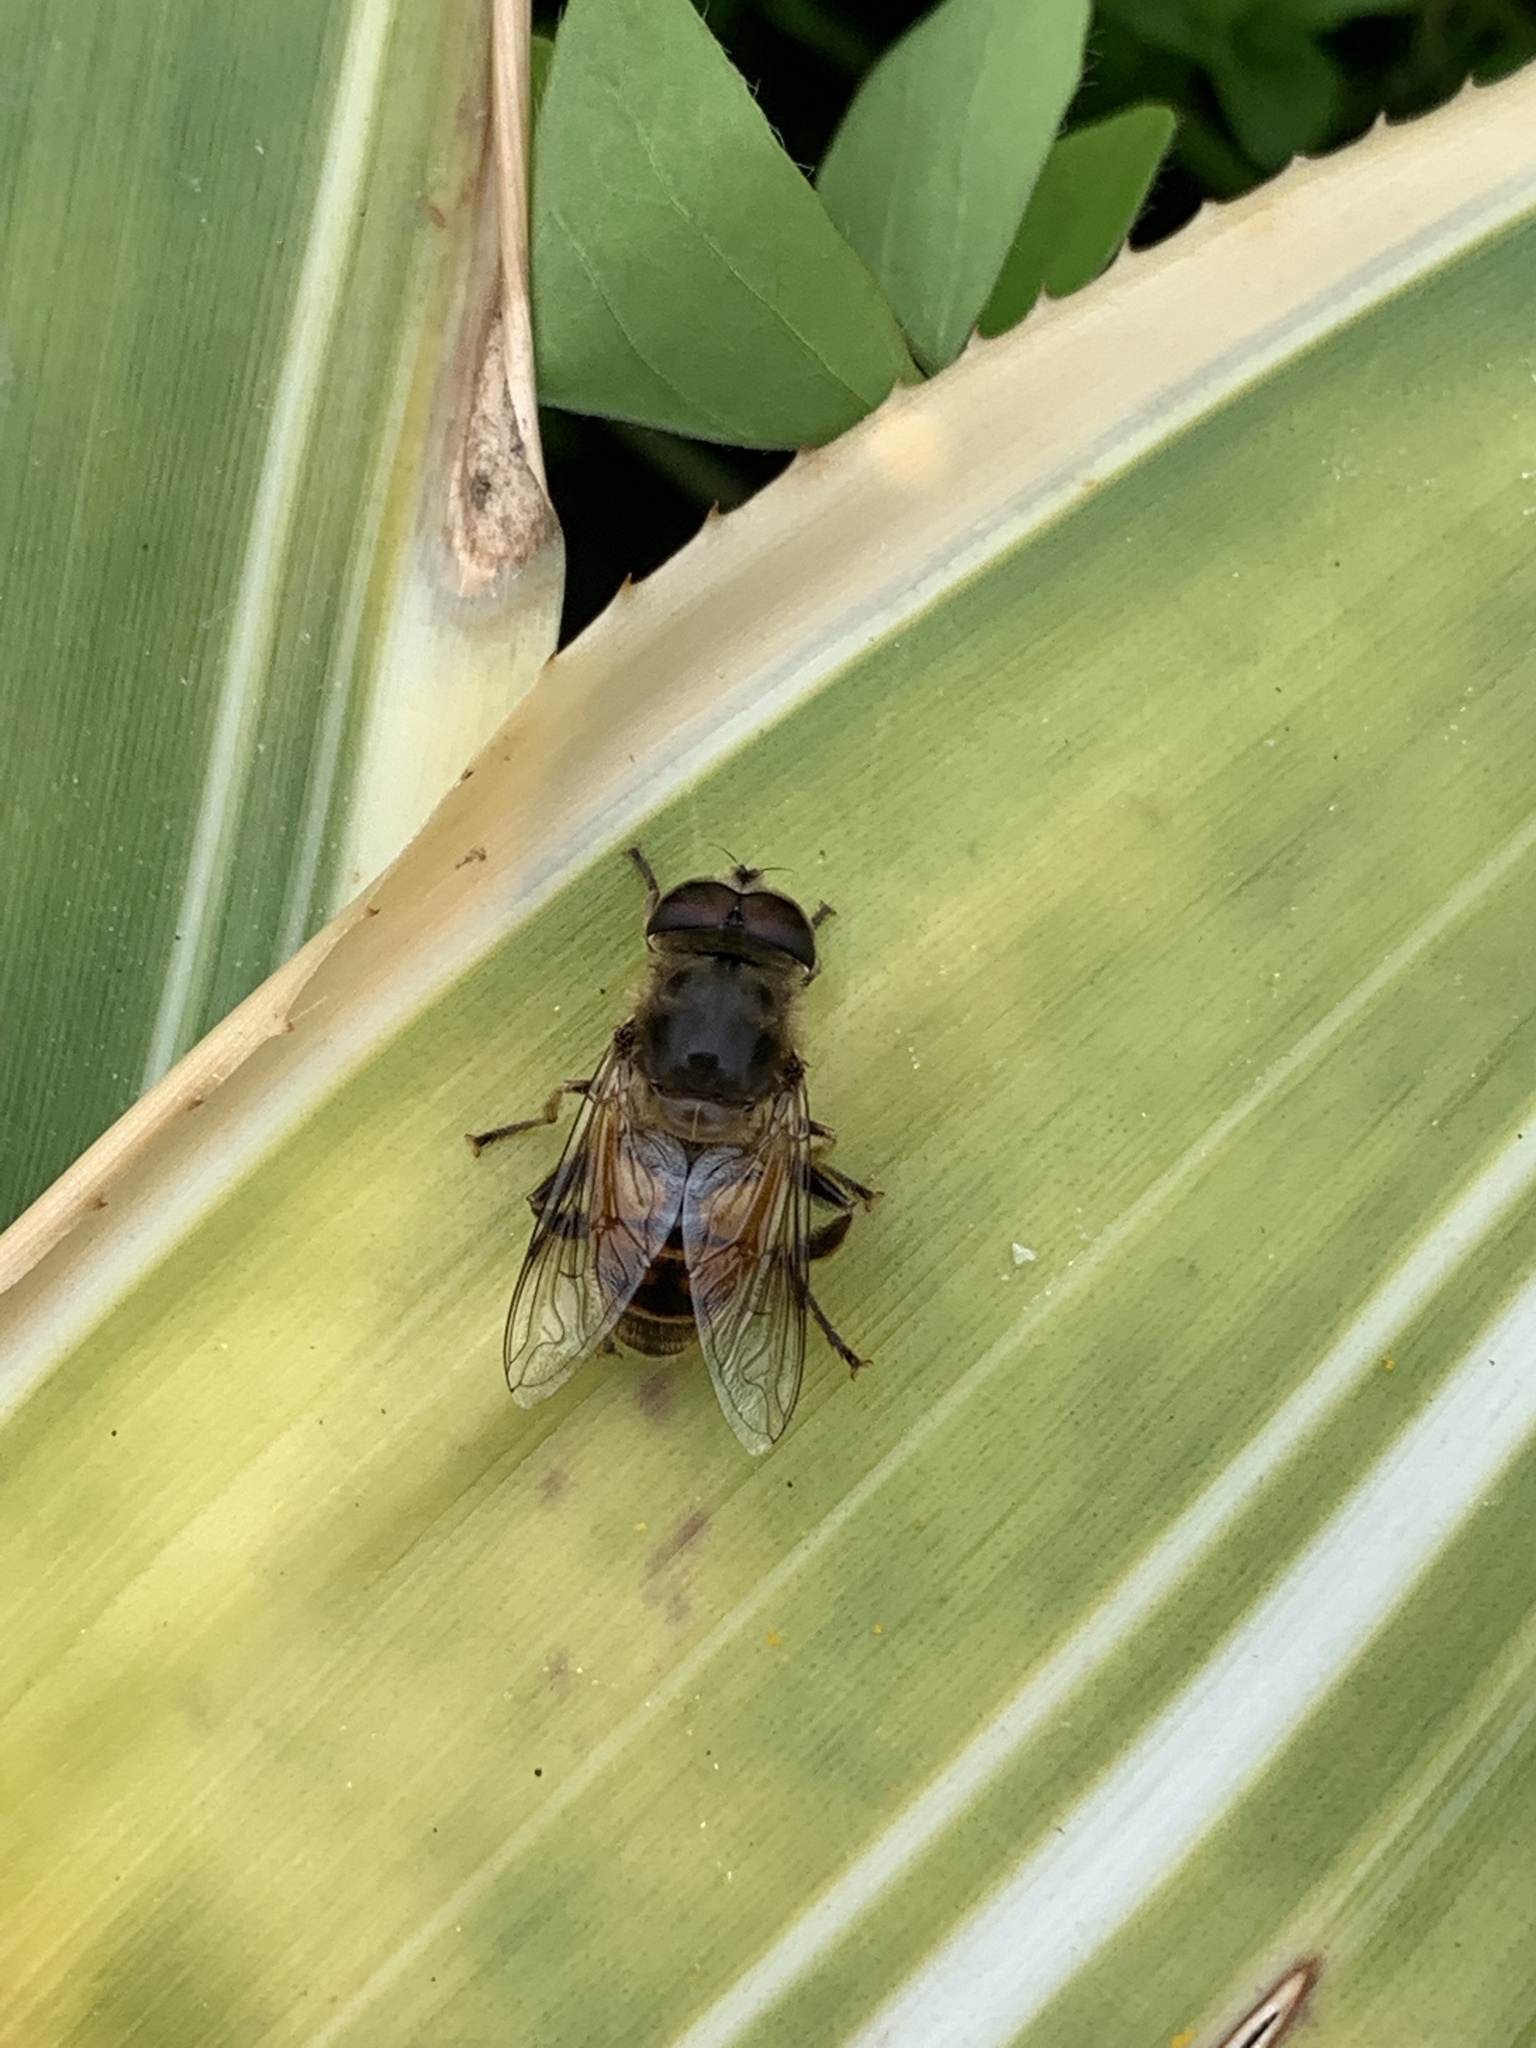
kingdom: Animalia
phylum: Arthropoda
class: Insecta
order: Diptera
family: Syrphidae
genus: Eristalis
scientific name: Eristalis tenax
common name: Drone fly
